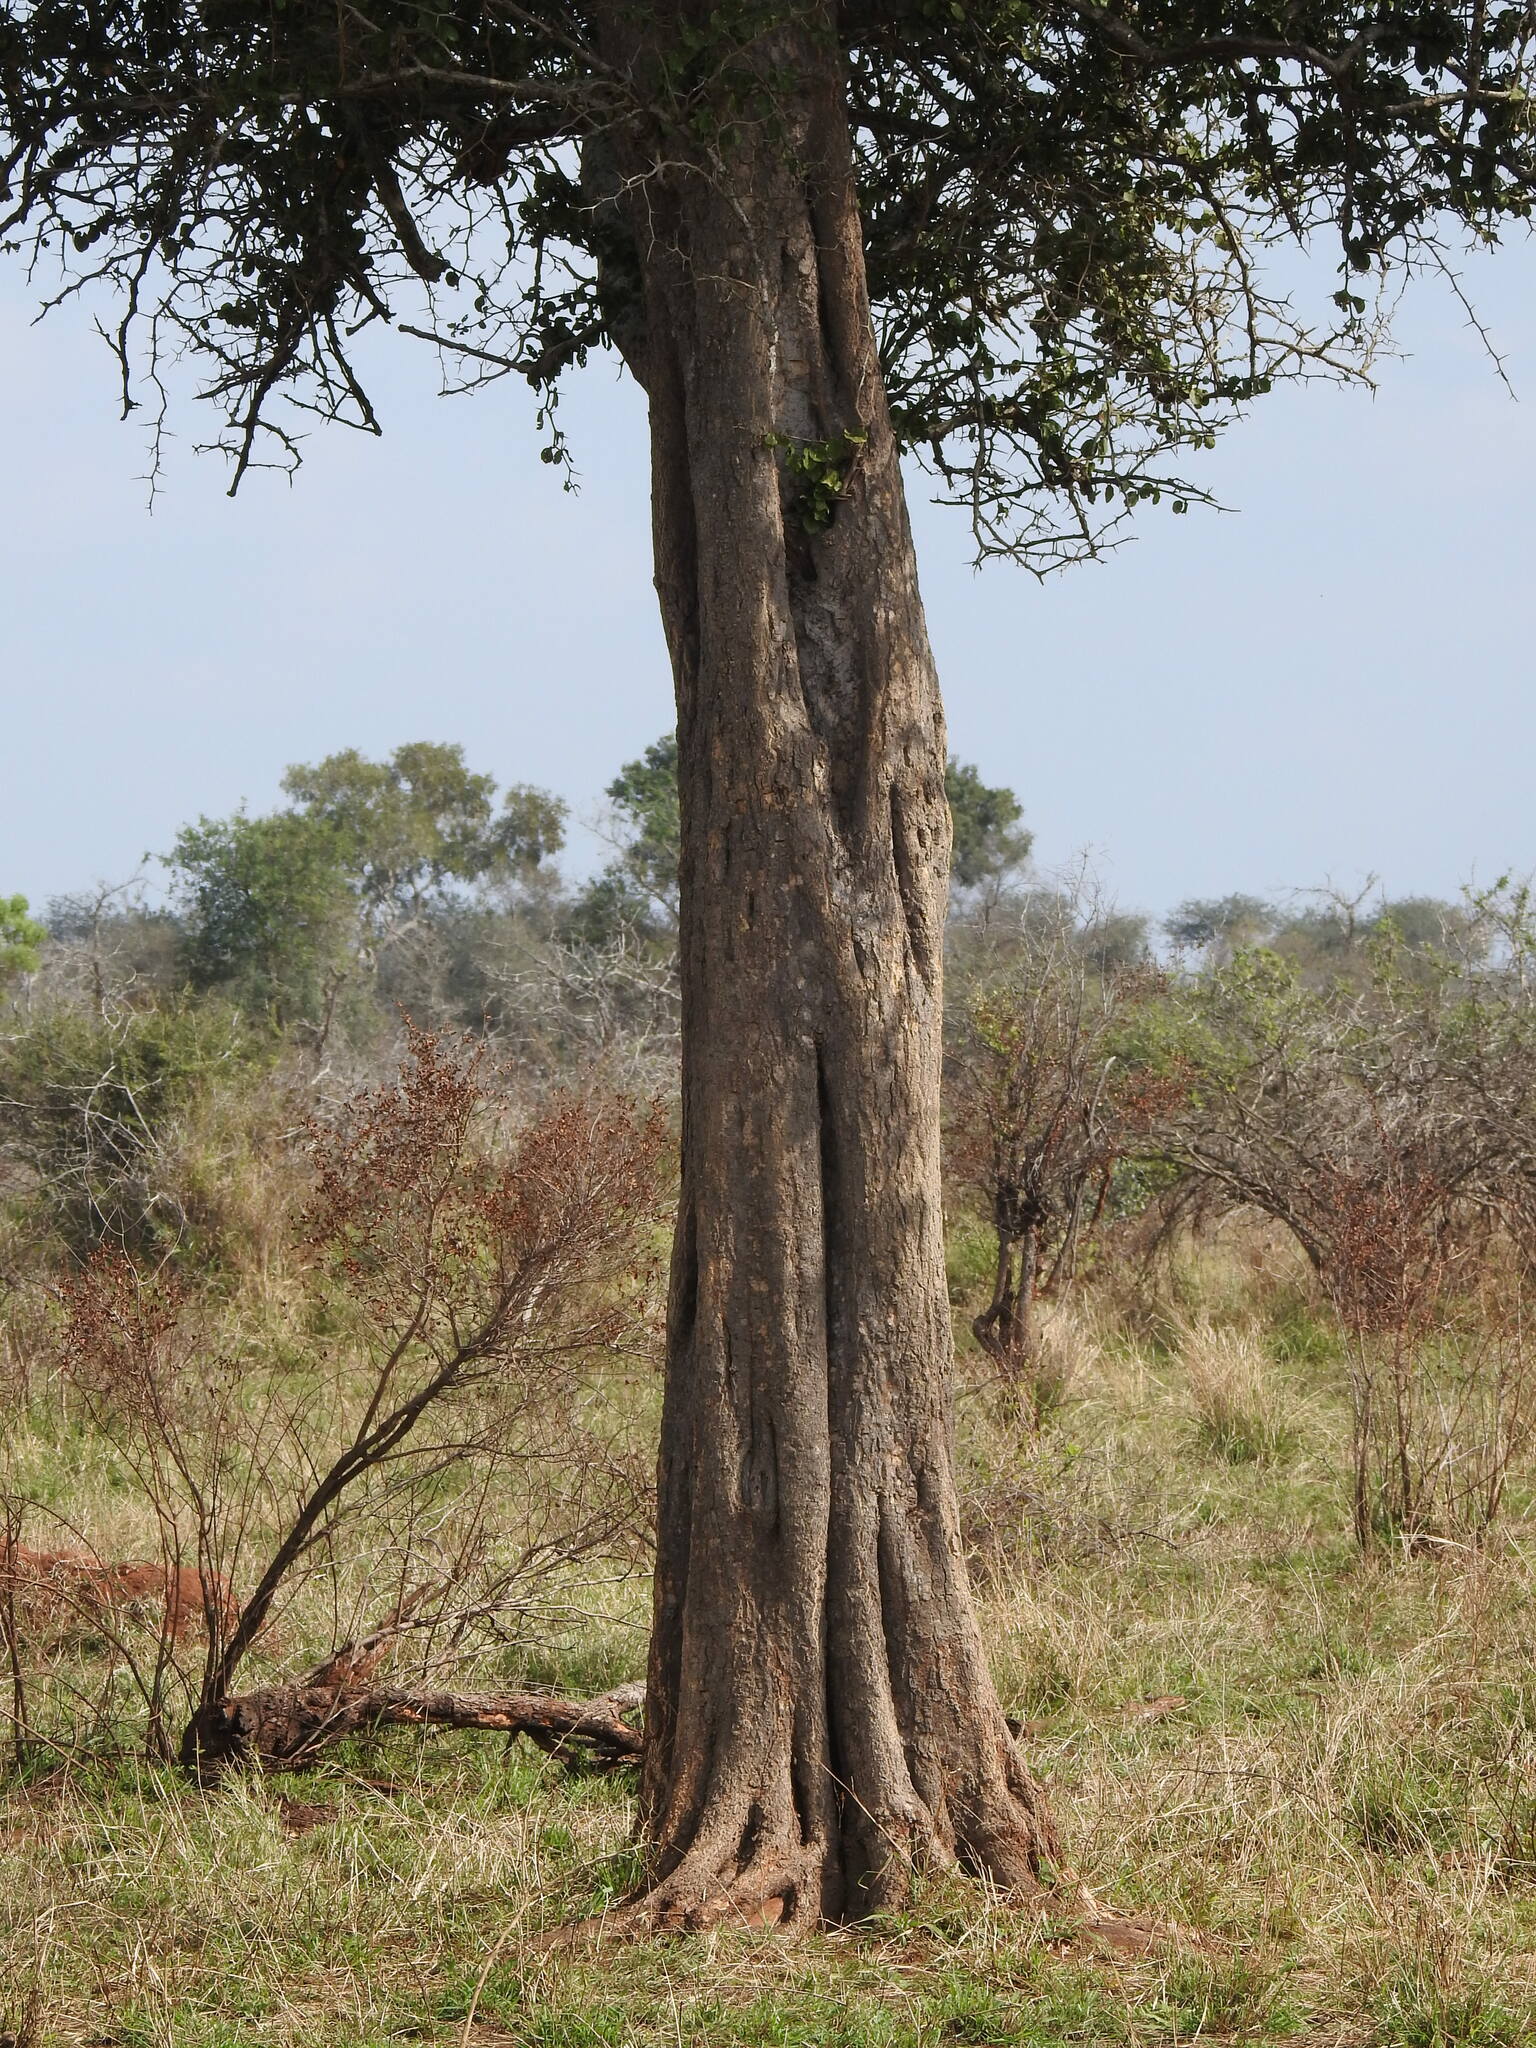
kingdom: Plantae
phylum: Tracheophyta
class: Magnoliopsida
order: Zygophyllales
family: Zygophyllaceae
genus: Balanites
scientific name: Balanites maughamii
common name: Torchwood
